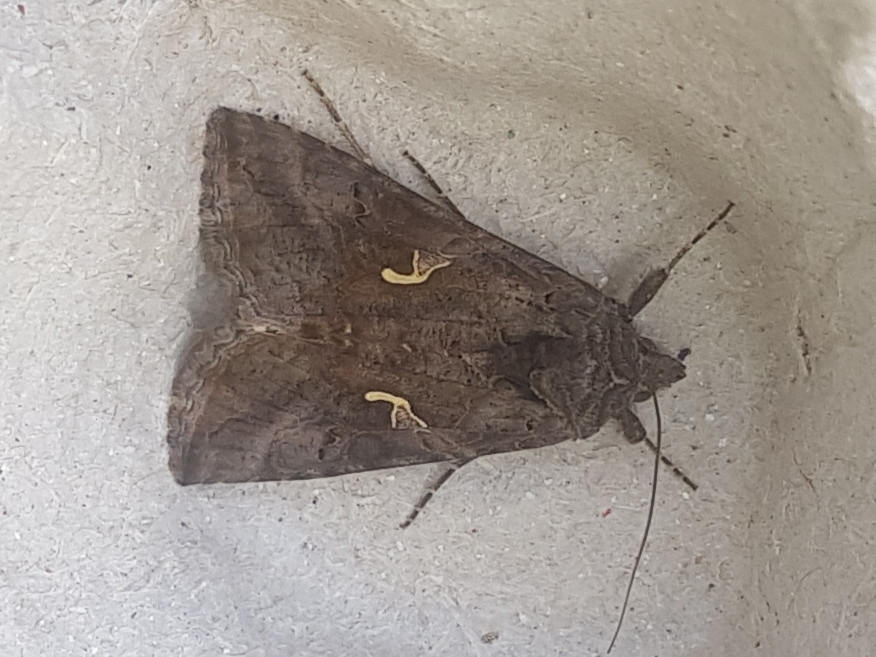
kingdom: Animalia
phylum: Arthropoda
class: Insecta
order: Lepidoptera
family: Noctuidae
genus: Autographa
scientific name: Autographa gamma
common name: Silver y
